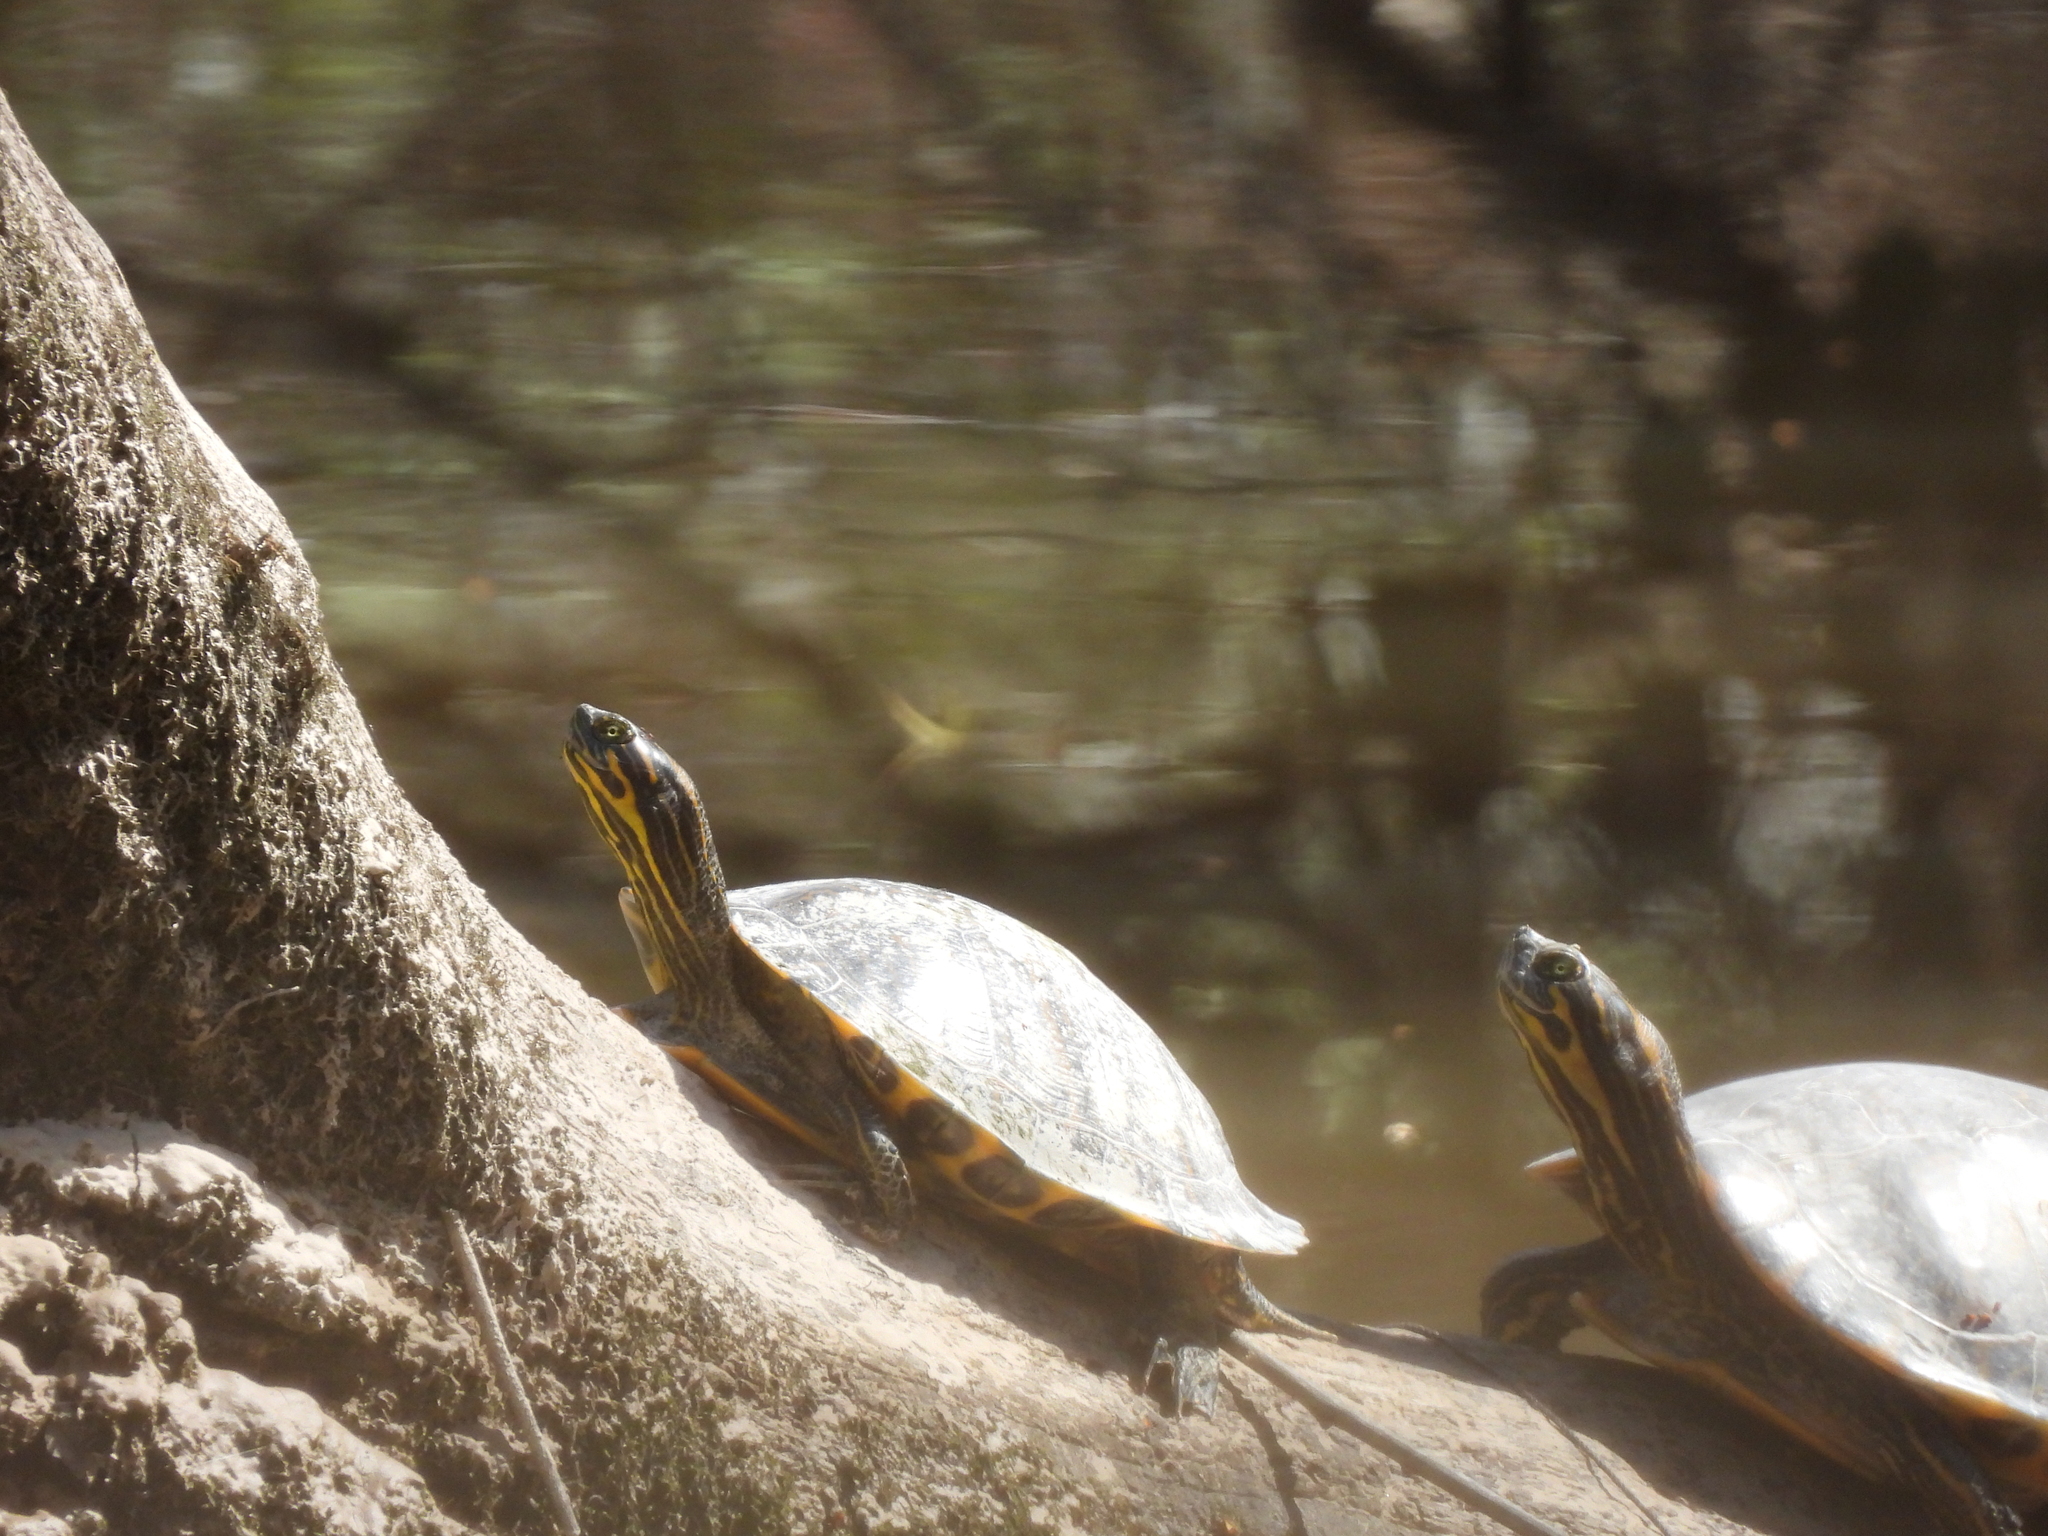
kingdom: Animalia
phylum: Chordata
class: Testudines
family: Emydidae
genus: Pseudemys
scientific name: Pseudemys concinna
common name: Eastern river cooter
